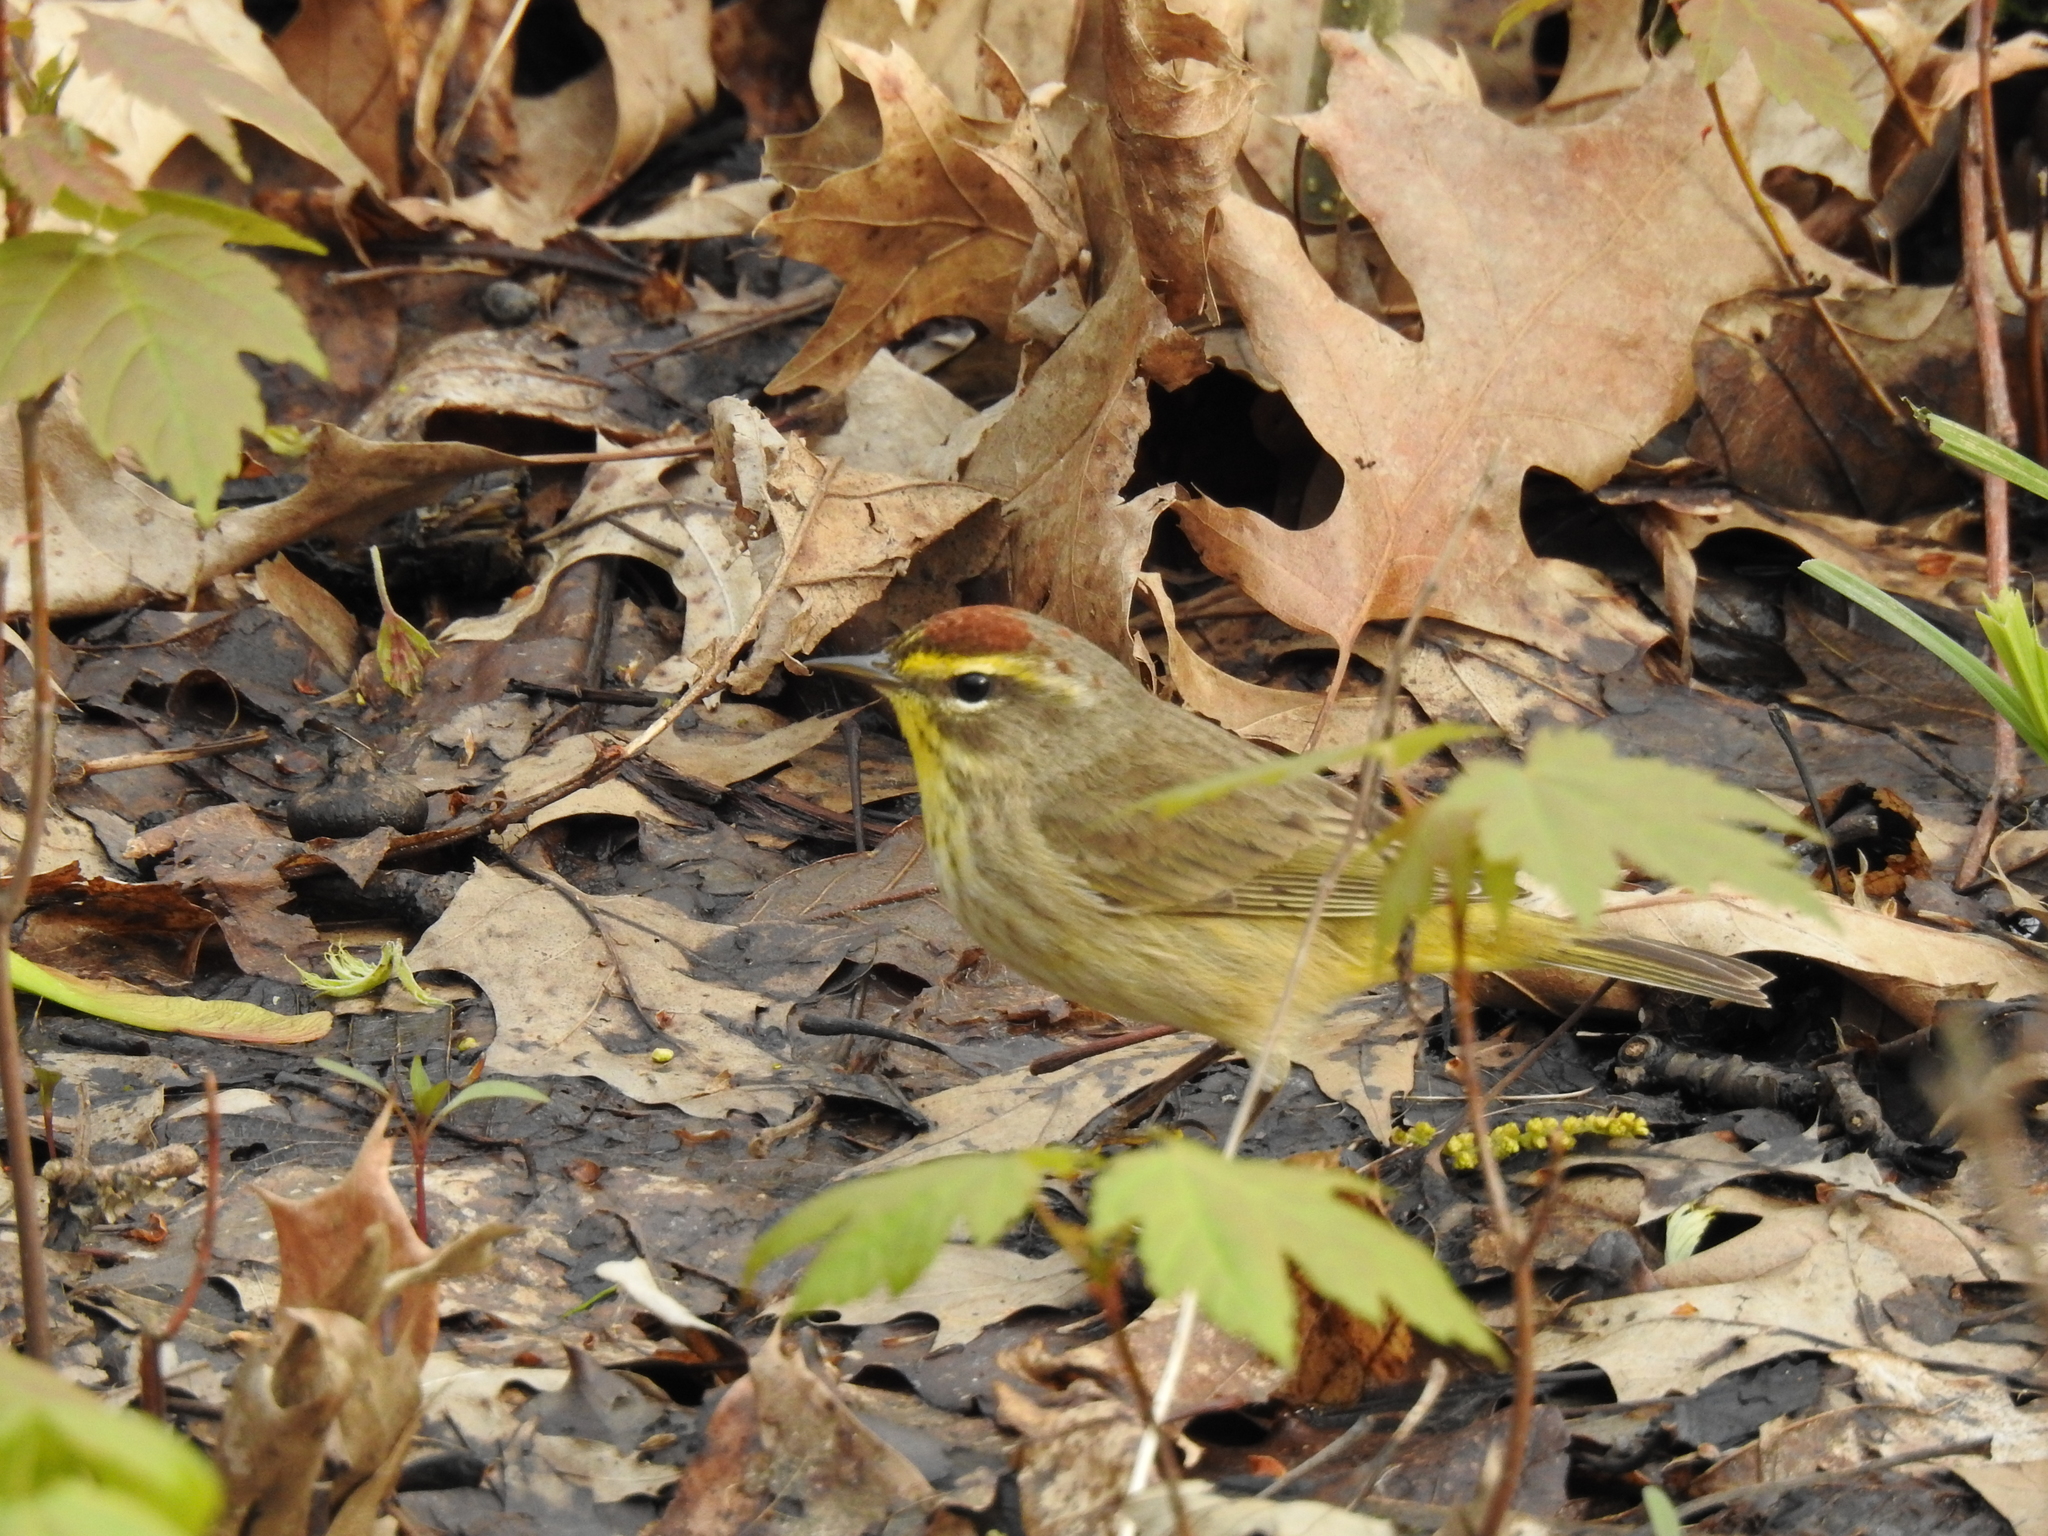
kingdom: Animalia
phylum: Chordata
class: Aves
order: Passeriformes
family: Parulidae
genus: Setophaga
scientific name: Setophaga palmarum
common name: Palm warbler
